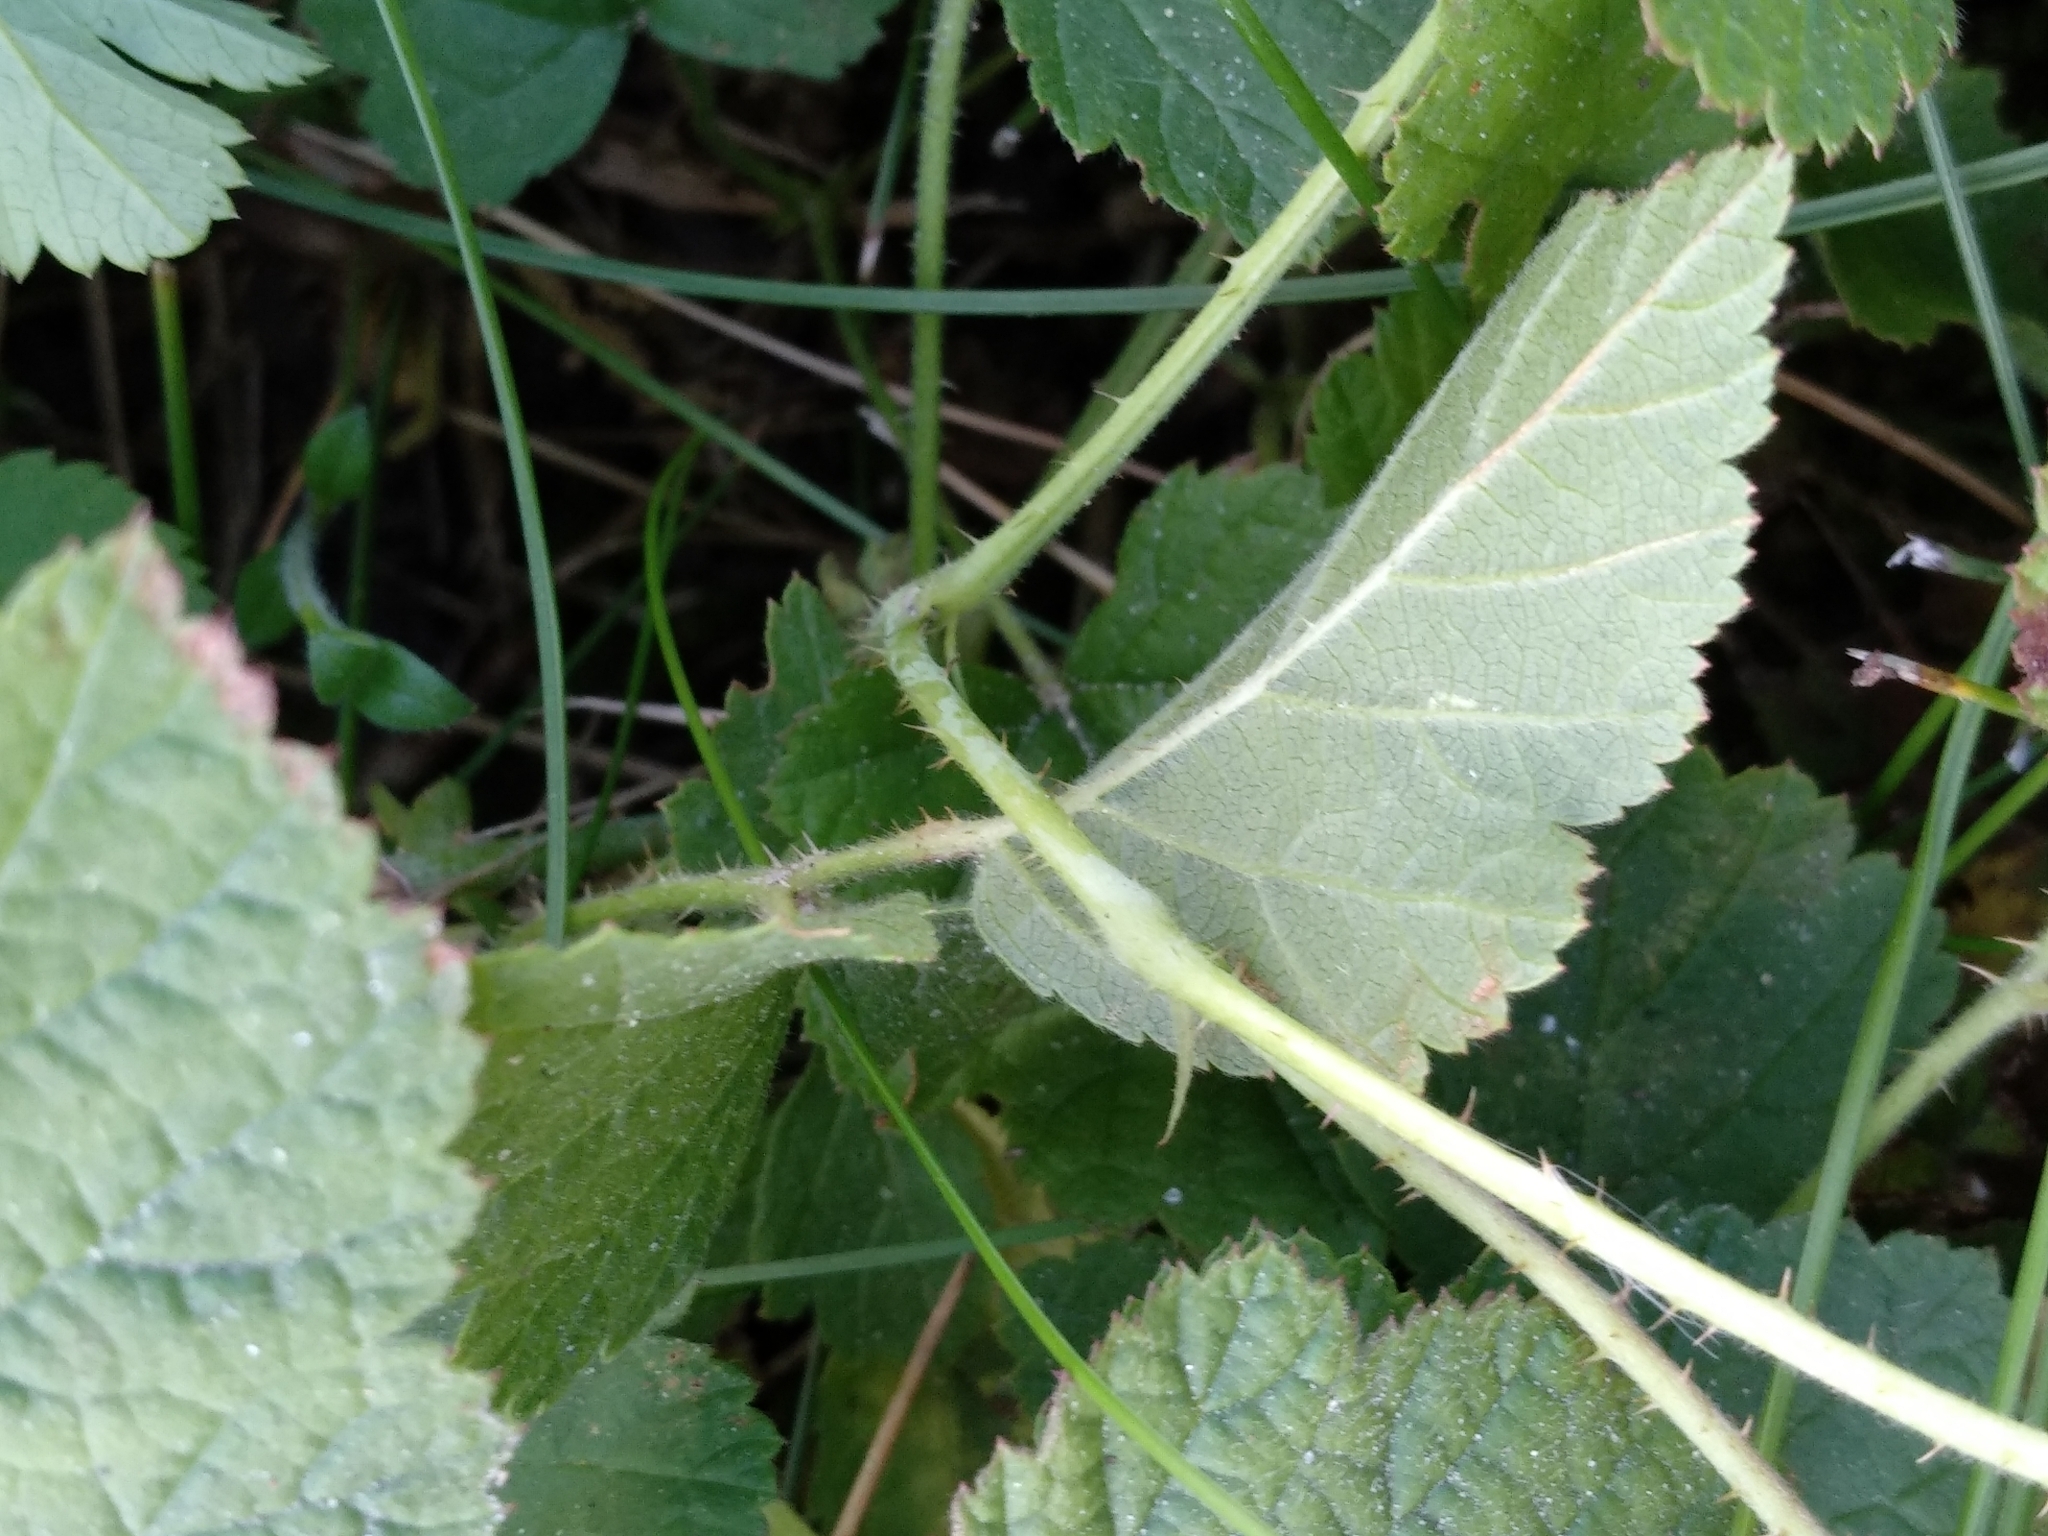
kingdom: Plantae
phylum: Tracheophyta
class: Magnoliopsida
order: Rosales
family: Rosaceae
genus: Rubus
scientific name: Rubus
